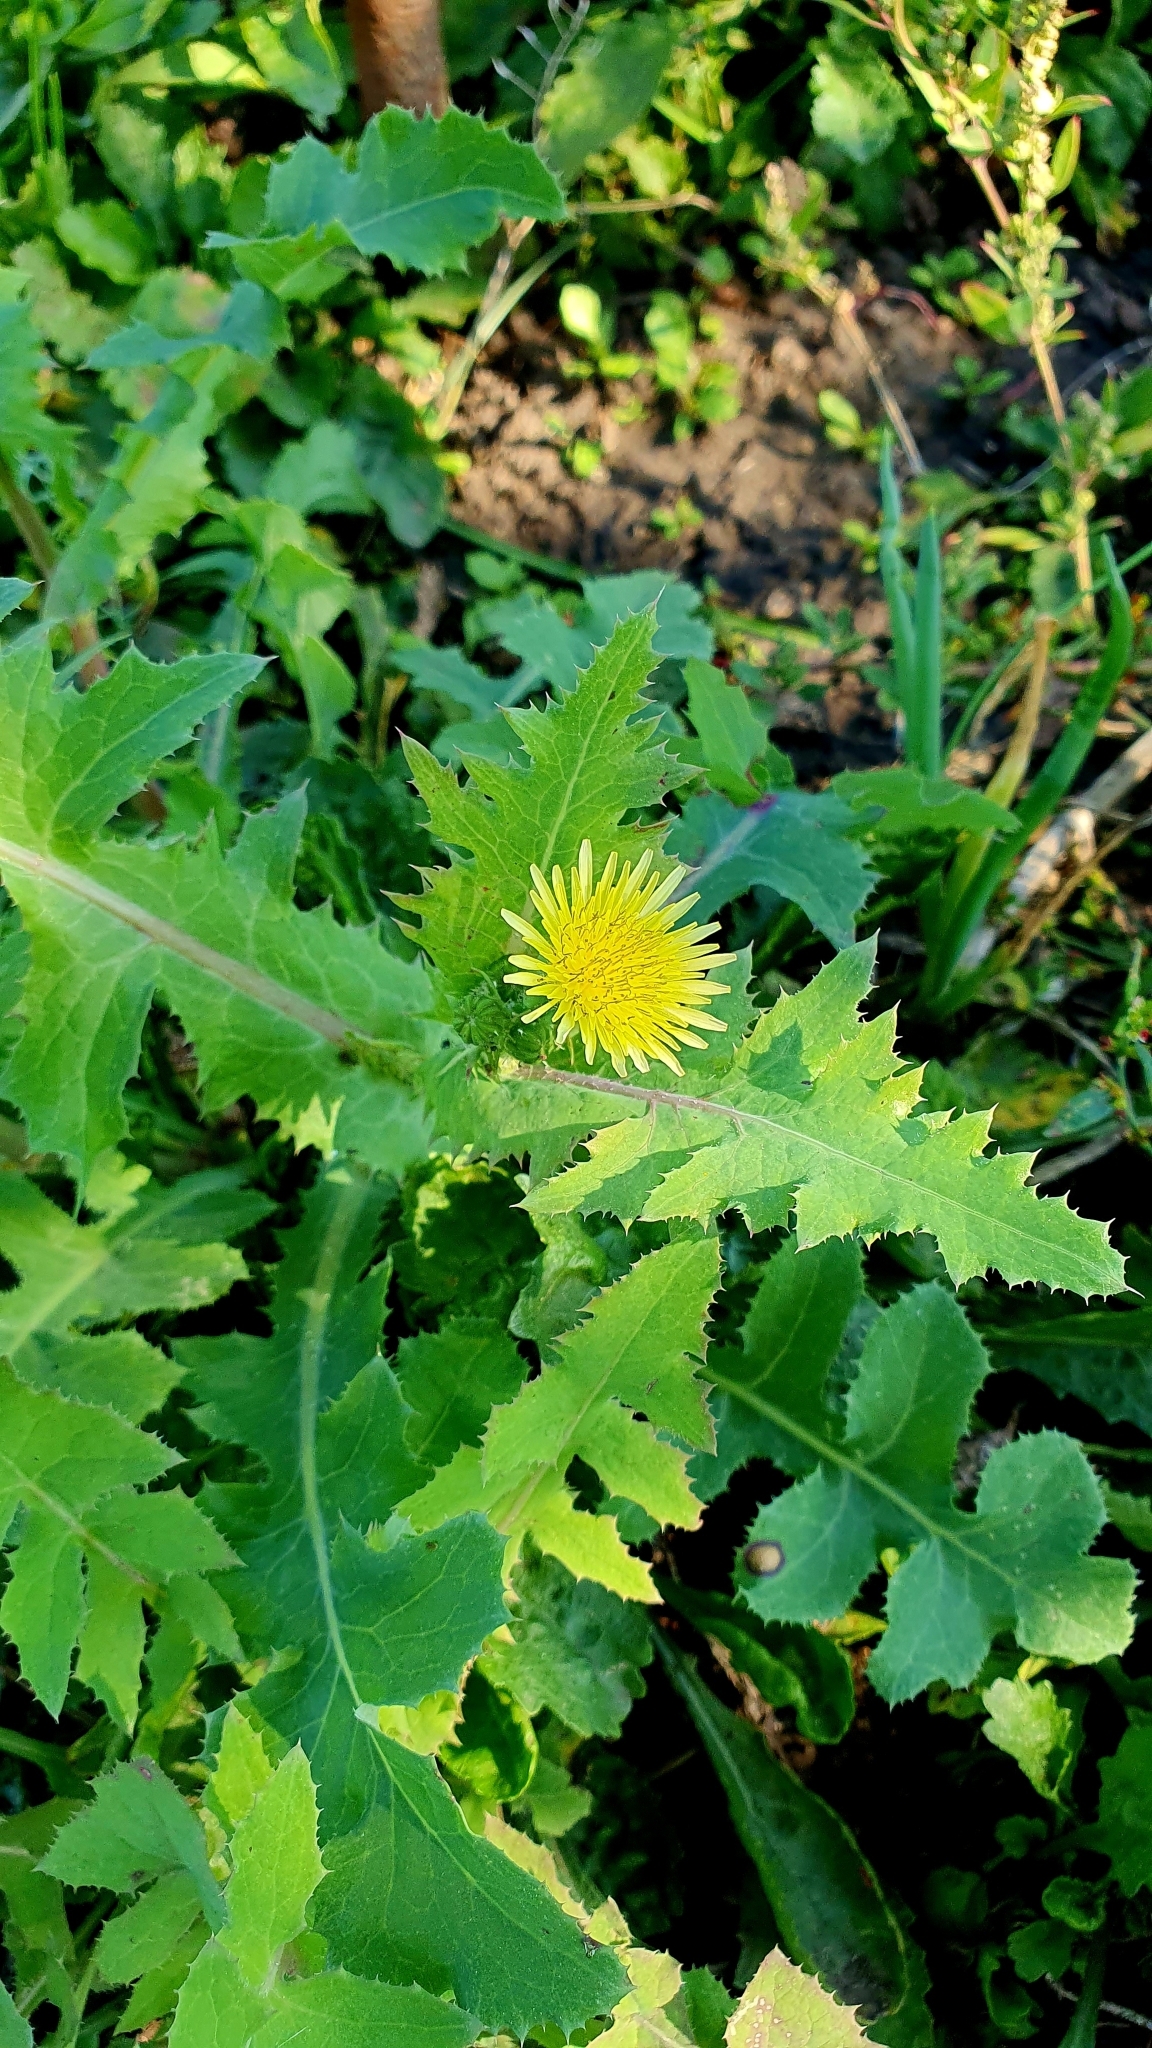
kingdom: Plantae
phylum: Tracheophyta
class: Magnoliopsida
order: Asterales
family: Asteraceae
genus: Sonchus
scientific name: Sonchus oleraceus
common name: Common sowthistle
